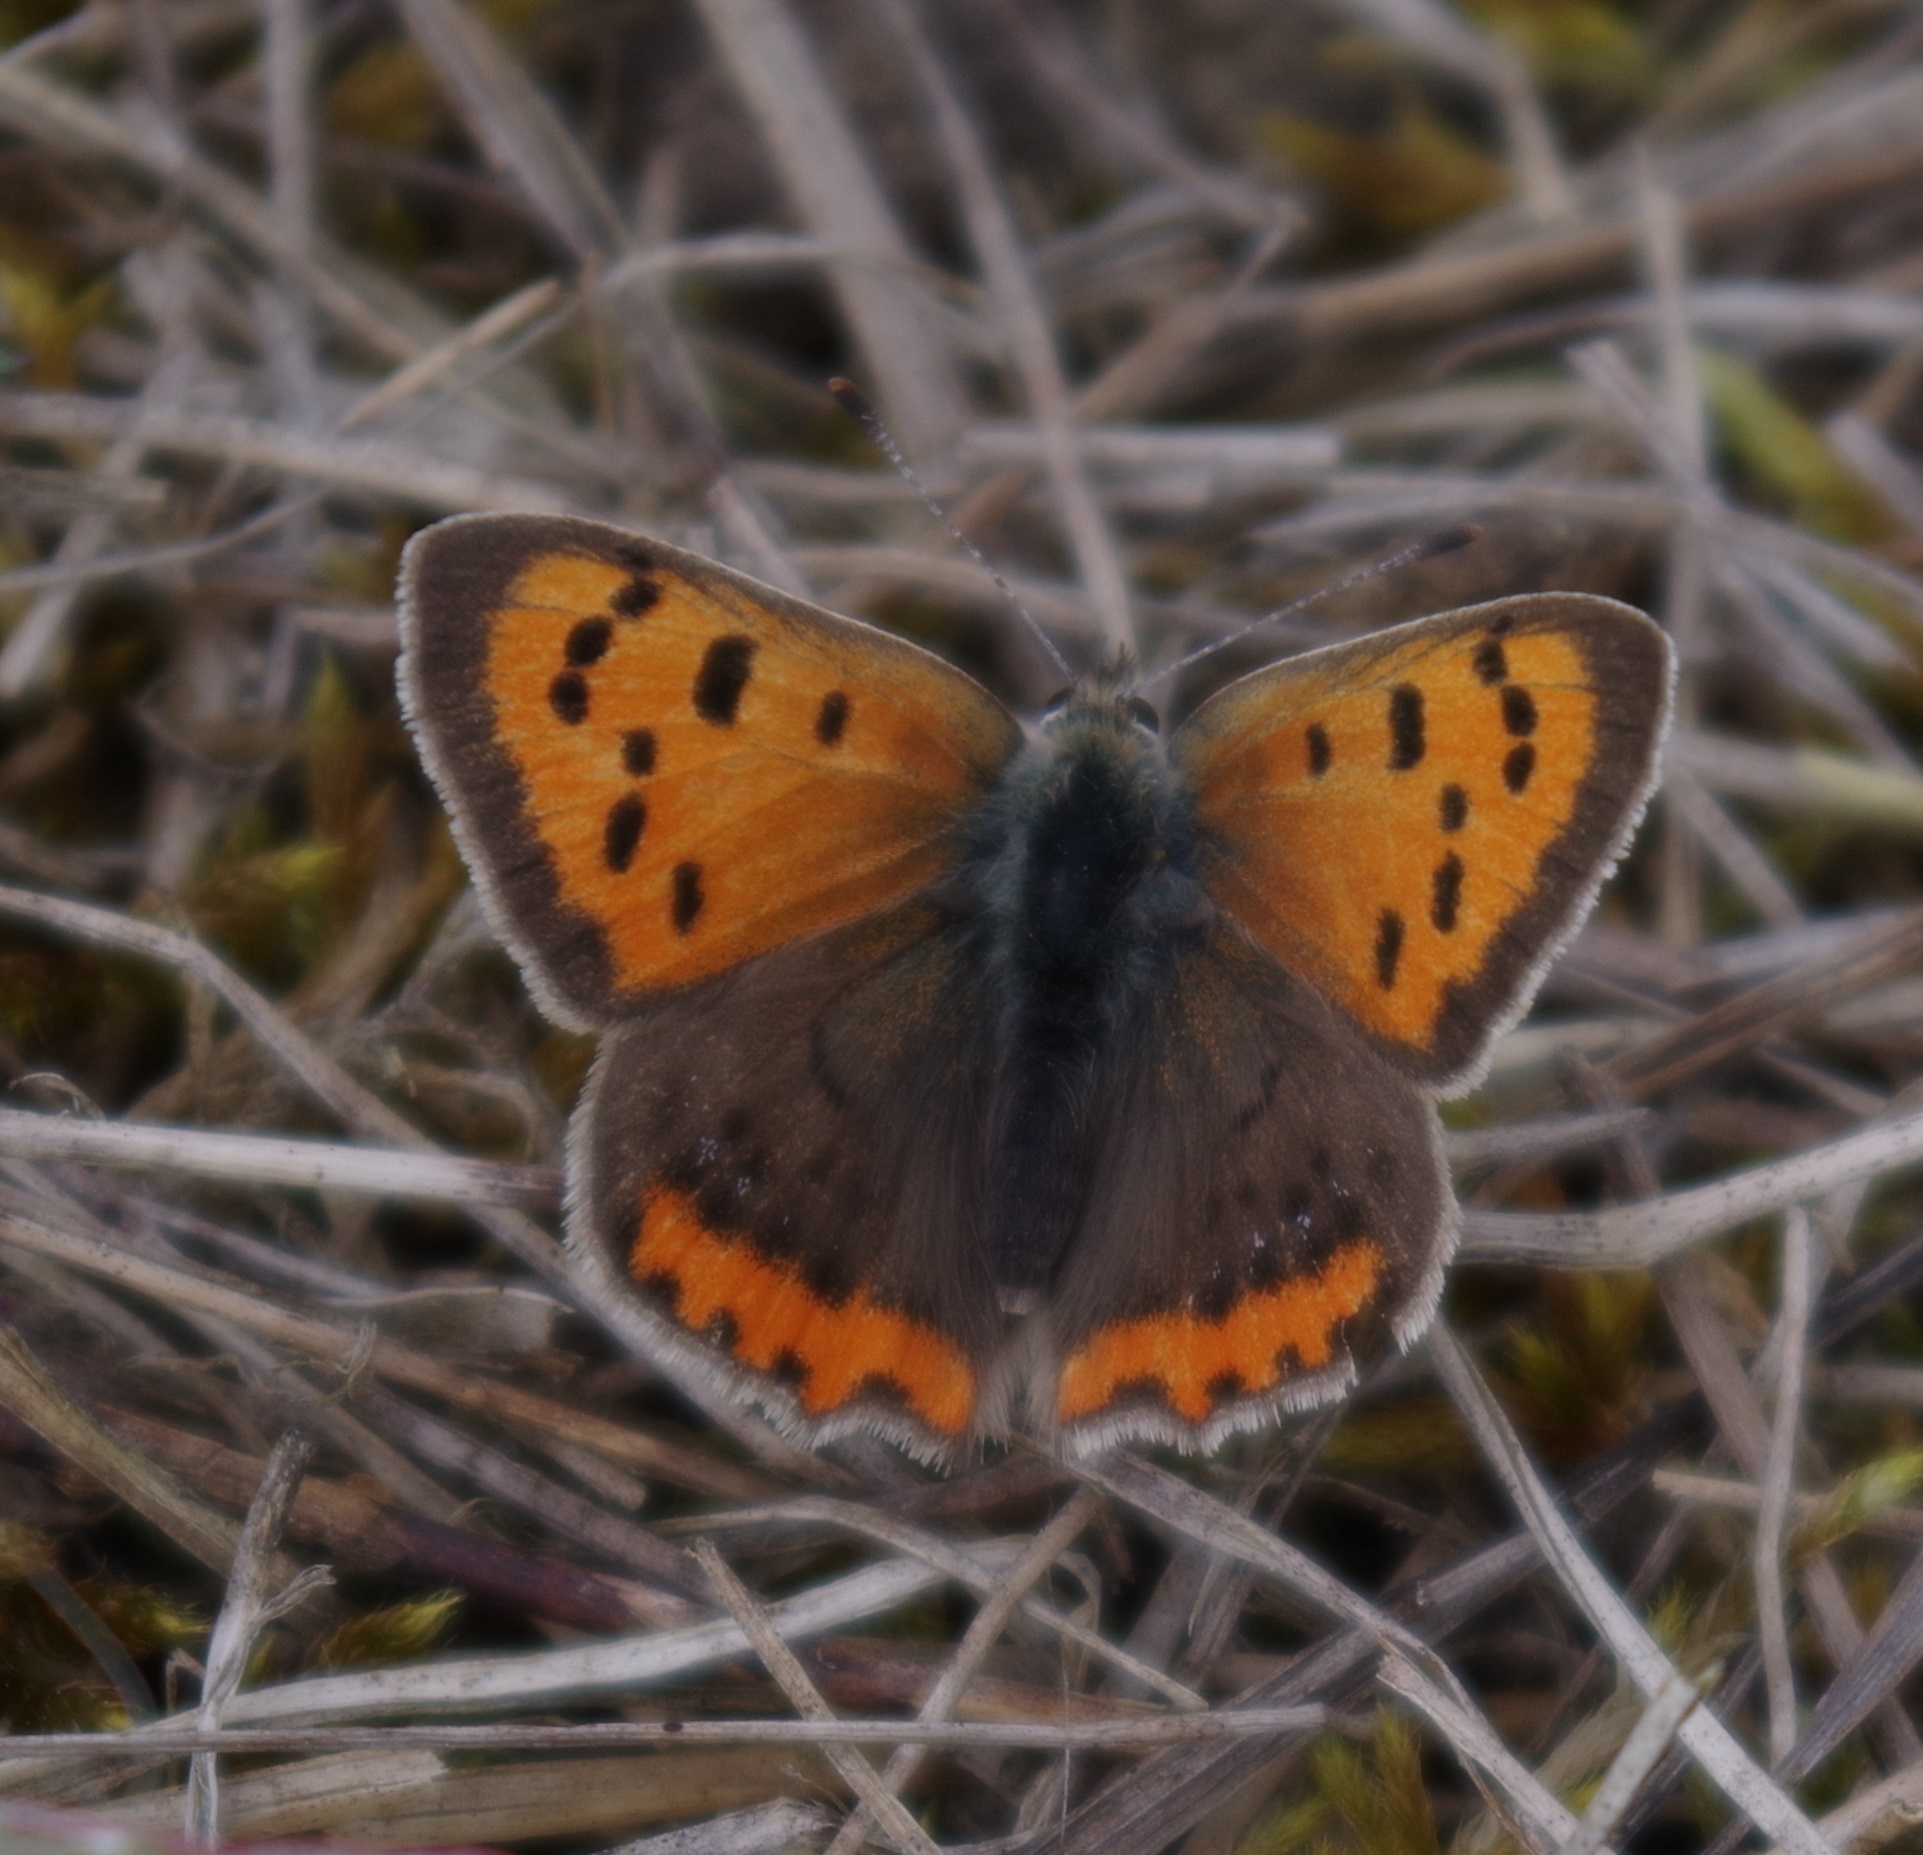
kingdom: Animalia
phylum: Arthropoda
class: Insecta
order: Lepidoptera
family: Lycaenidae
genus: Lycaena
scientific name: Lycaena phlaeas
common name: Small copper
